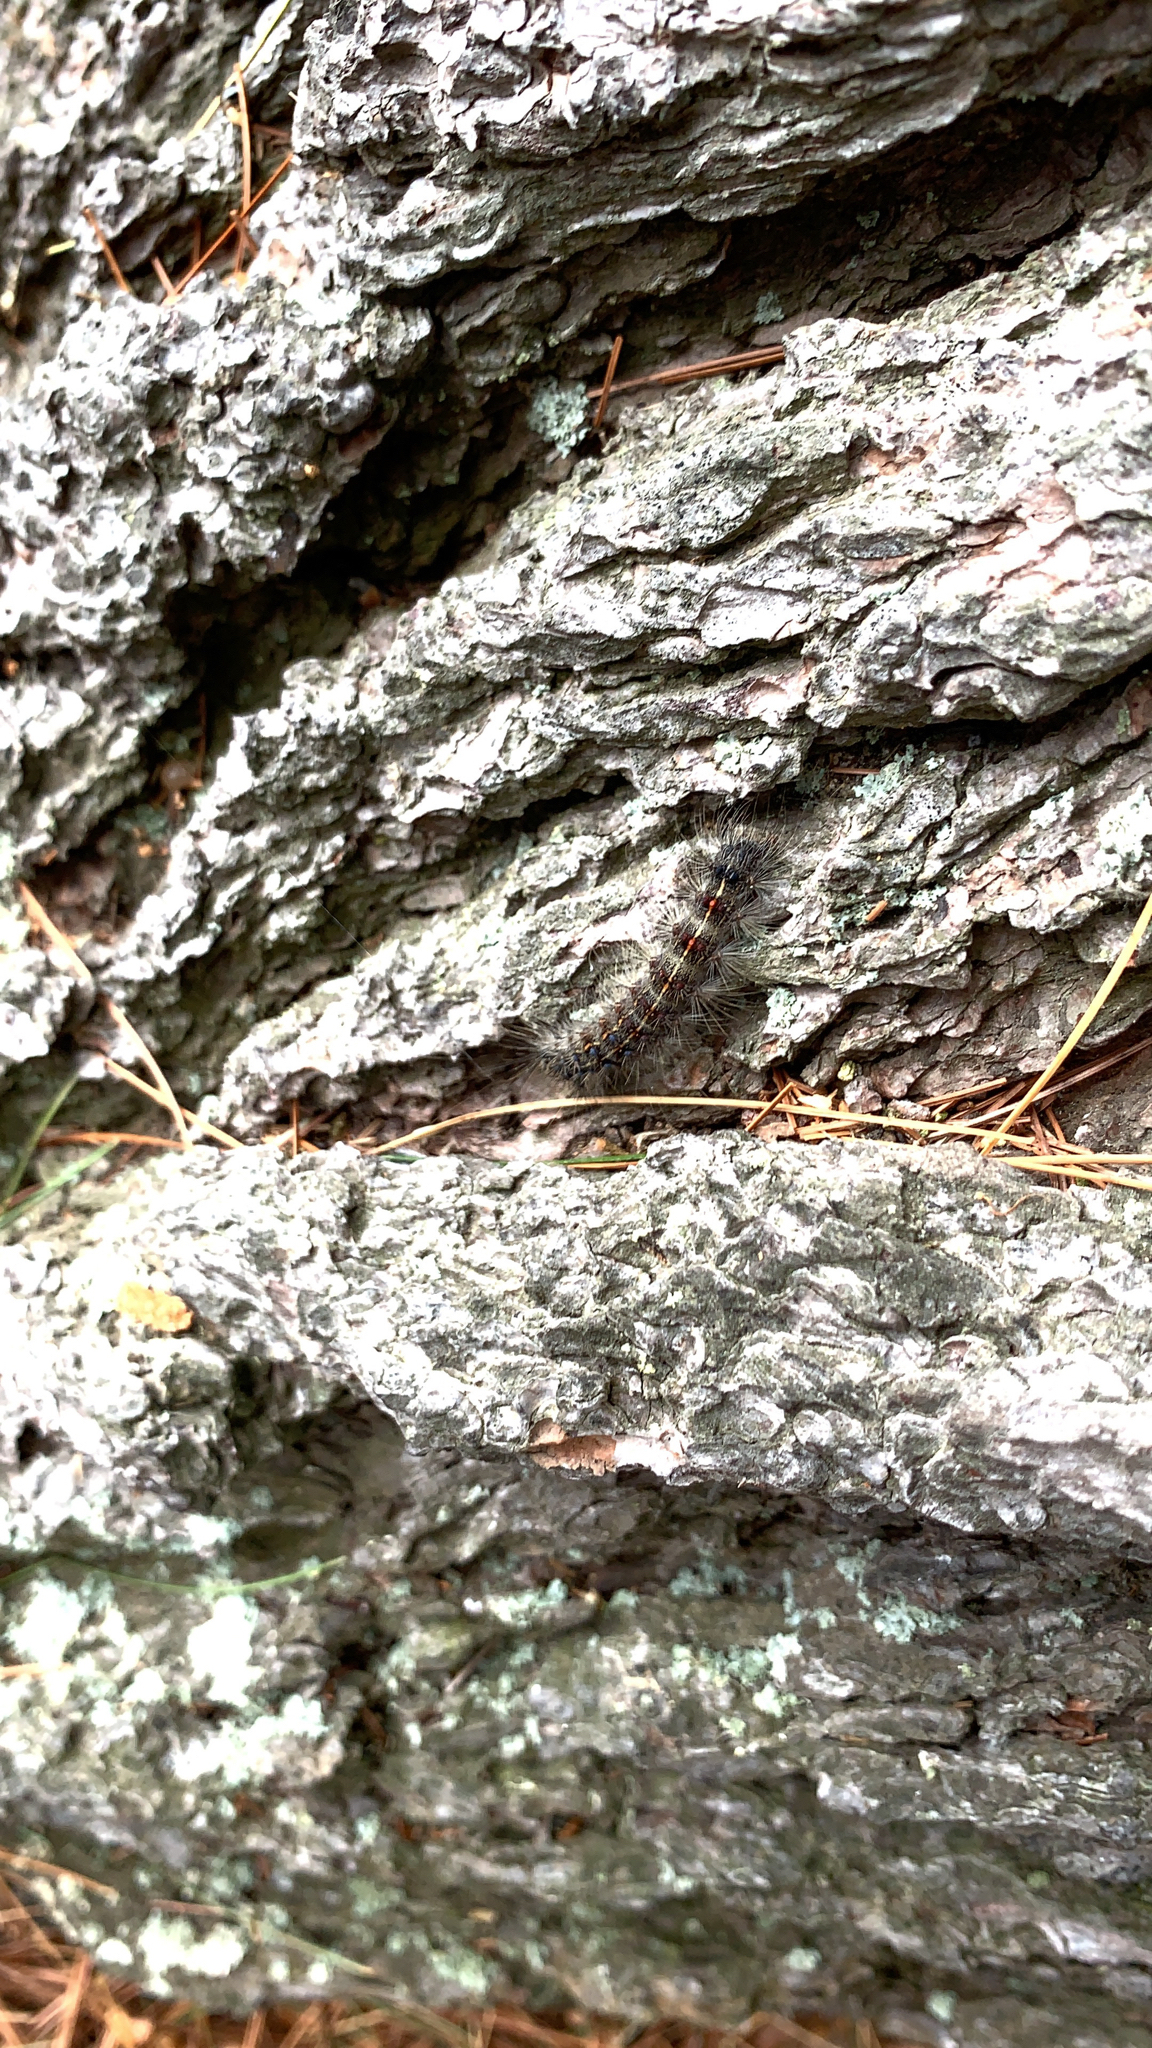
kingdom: Animalia
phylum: Arthropoda
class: Insecta
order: Lepidoptera
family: Erebidae
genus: Lymantria
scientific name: Lymantria dispar
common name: Gypsy moth
